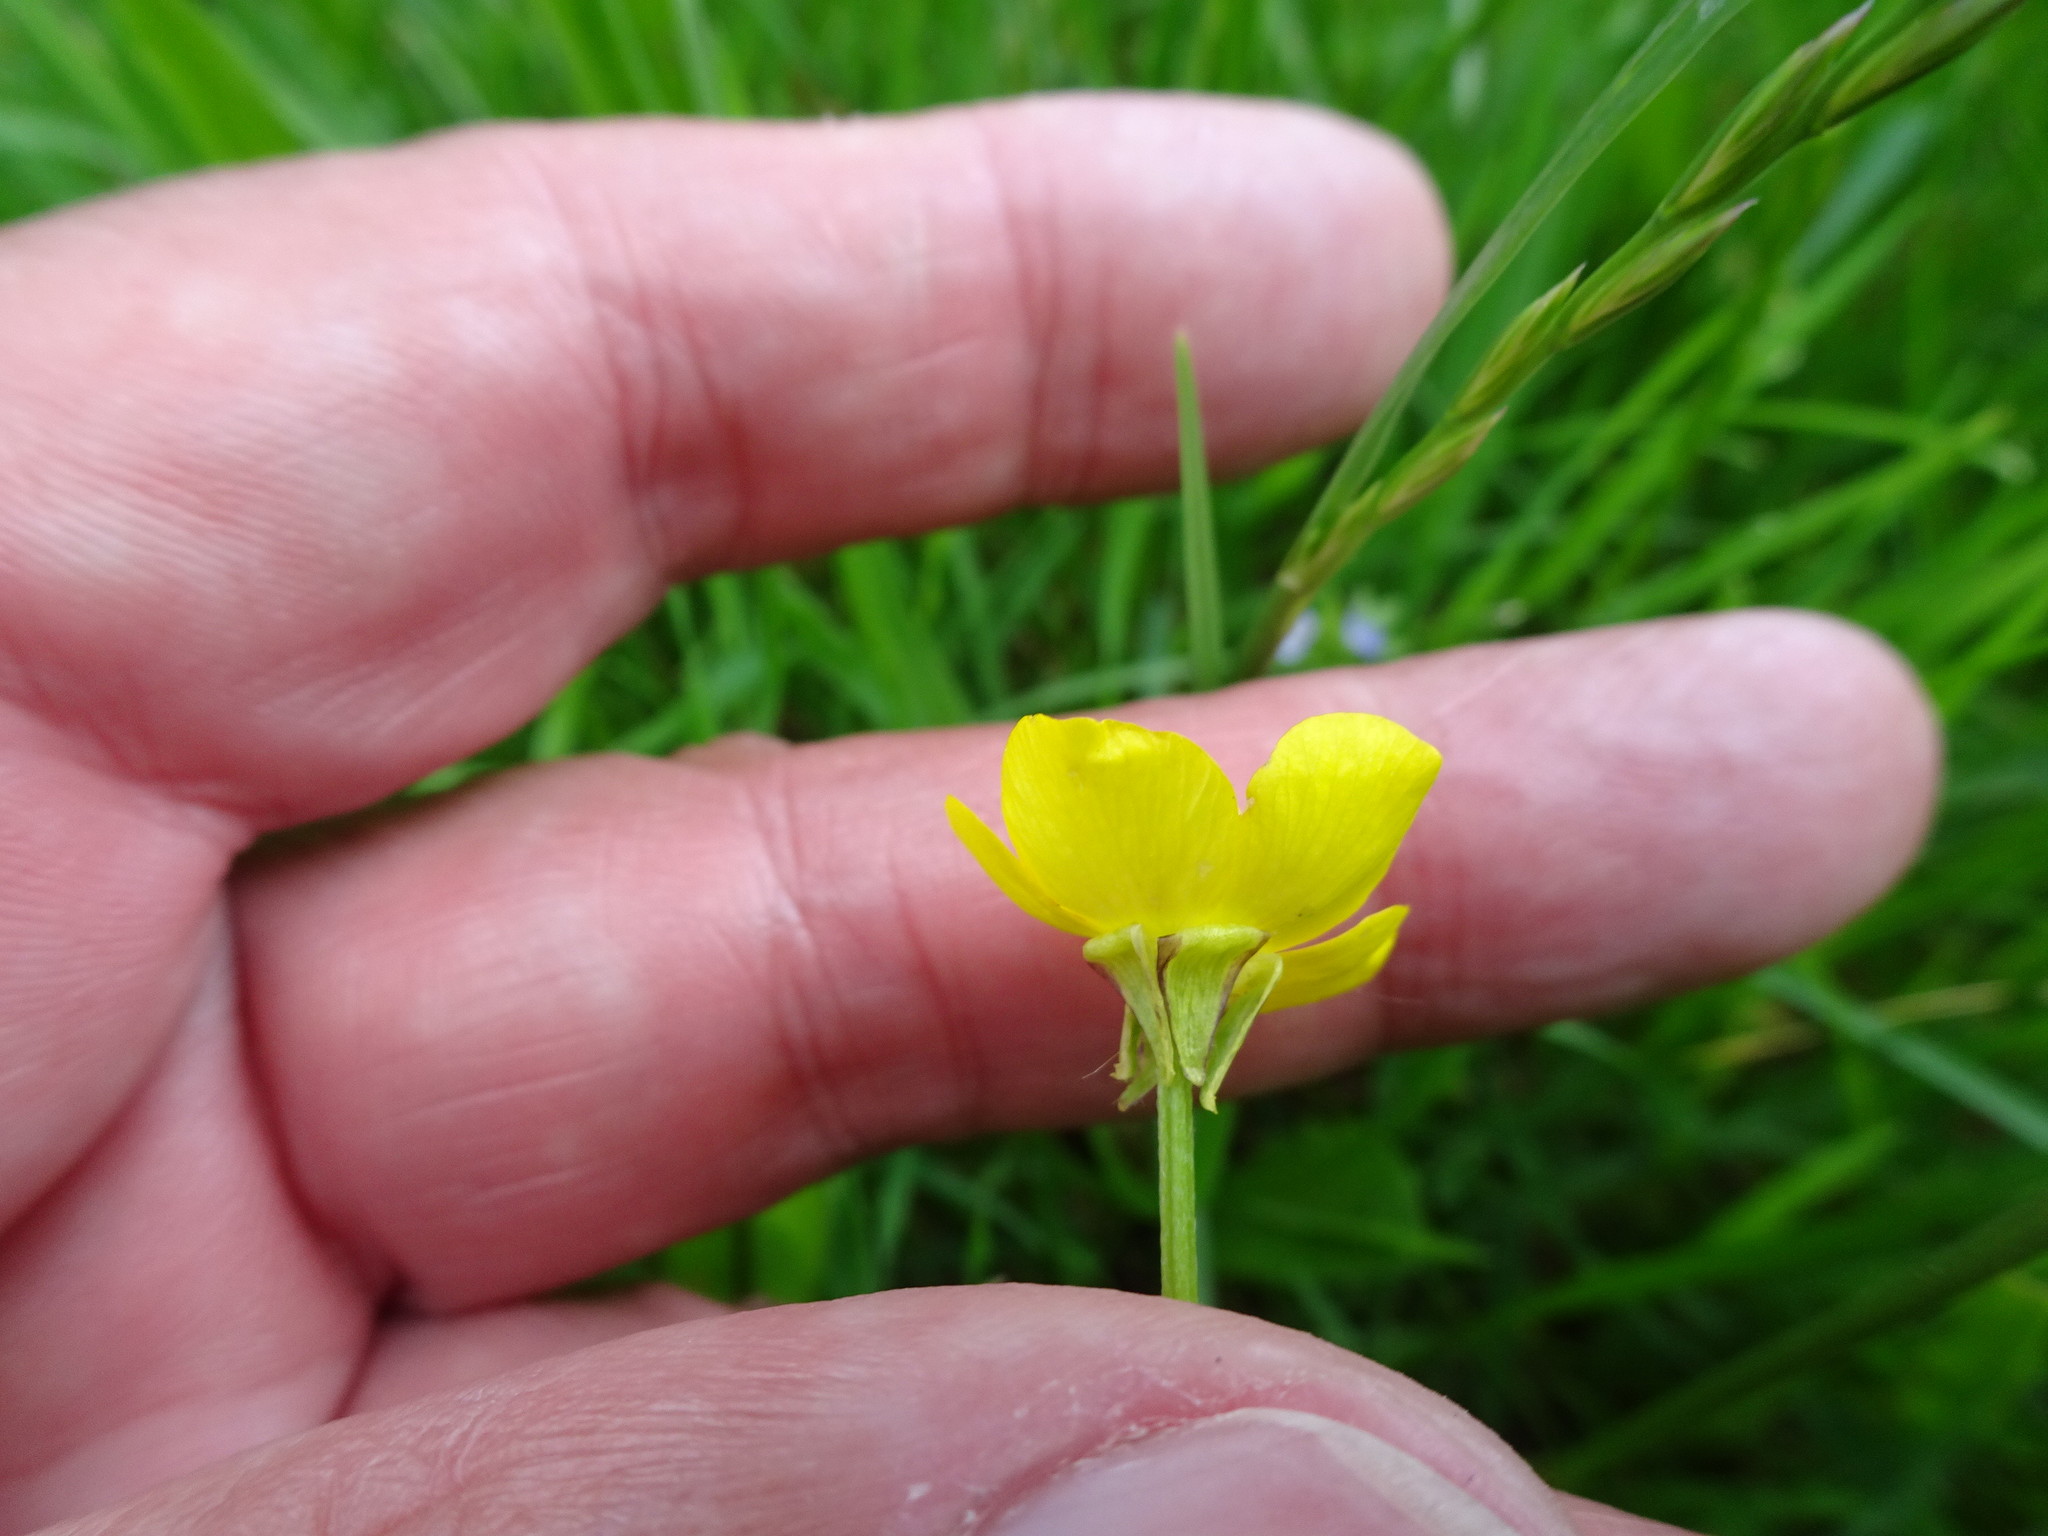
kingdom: Plantae
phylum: Tracheophyta
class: Magnoliopsida
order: Ranunculales
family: Ranunculaceae
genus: Ranunculus
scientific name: Ranunculus bulbosus
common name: Bulbous buttercup
